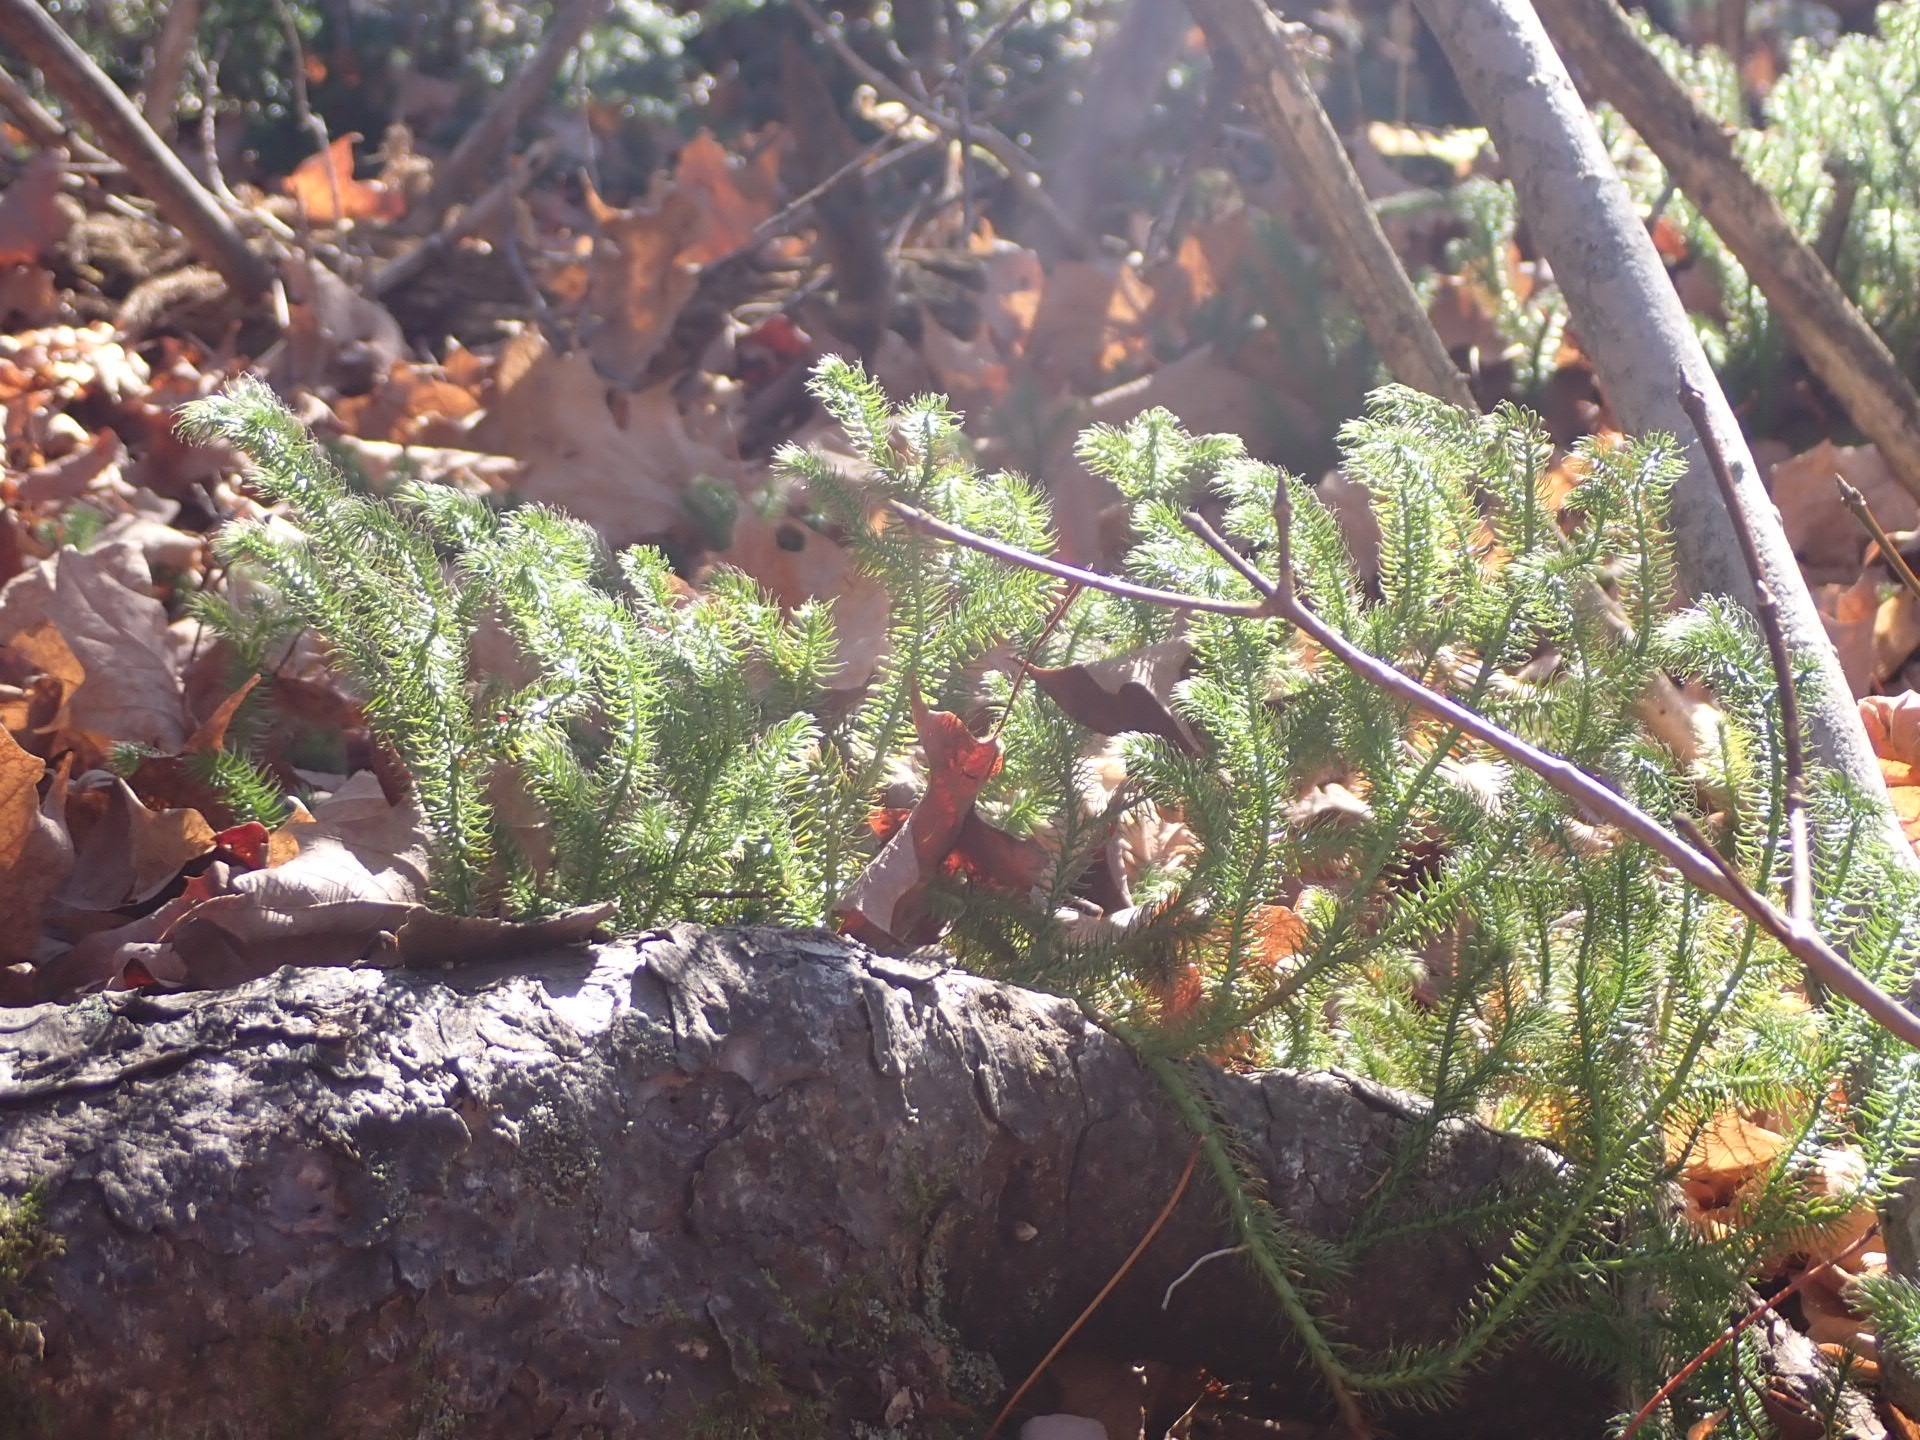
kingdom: Plantae
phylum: Tracheophyta
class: Lycopodiopsida
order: Lycopodiales
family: Lycopodiaceae
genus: Lycopodium
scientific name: Lycopodium clavatum
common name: Stag's-horn clubmoss
